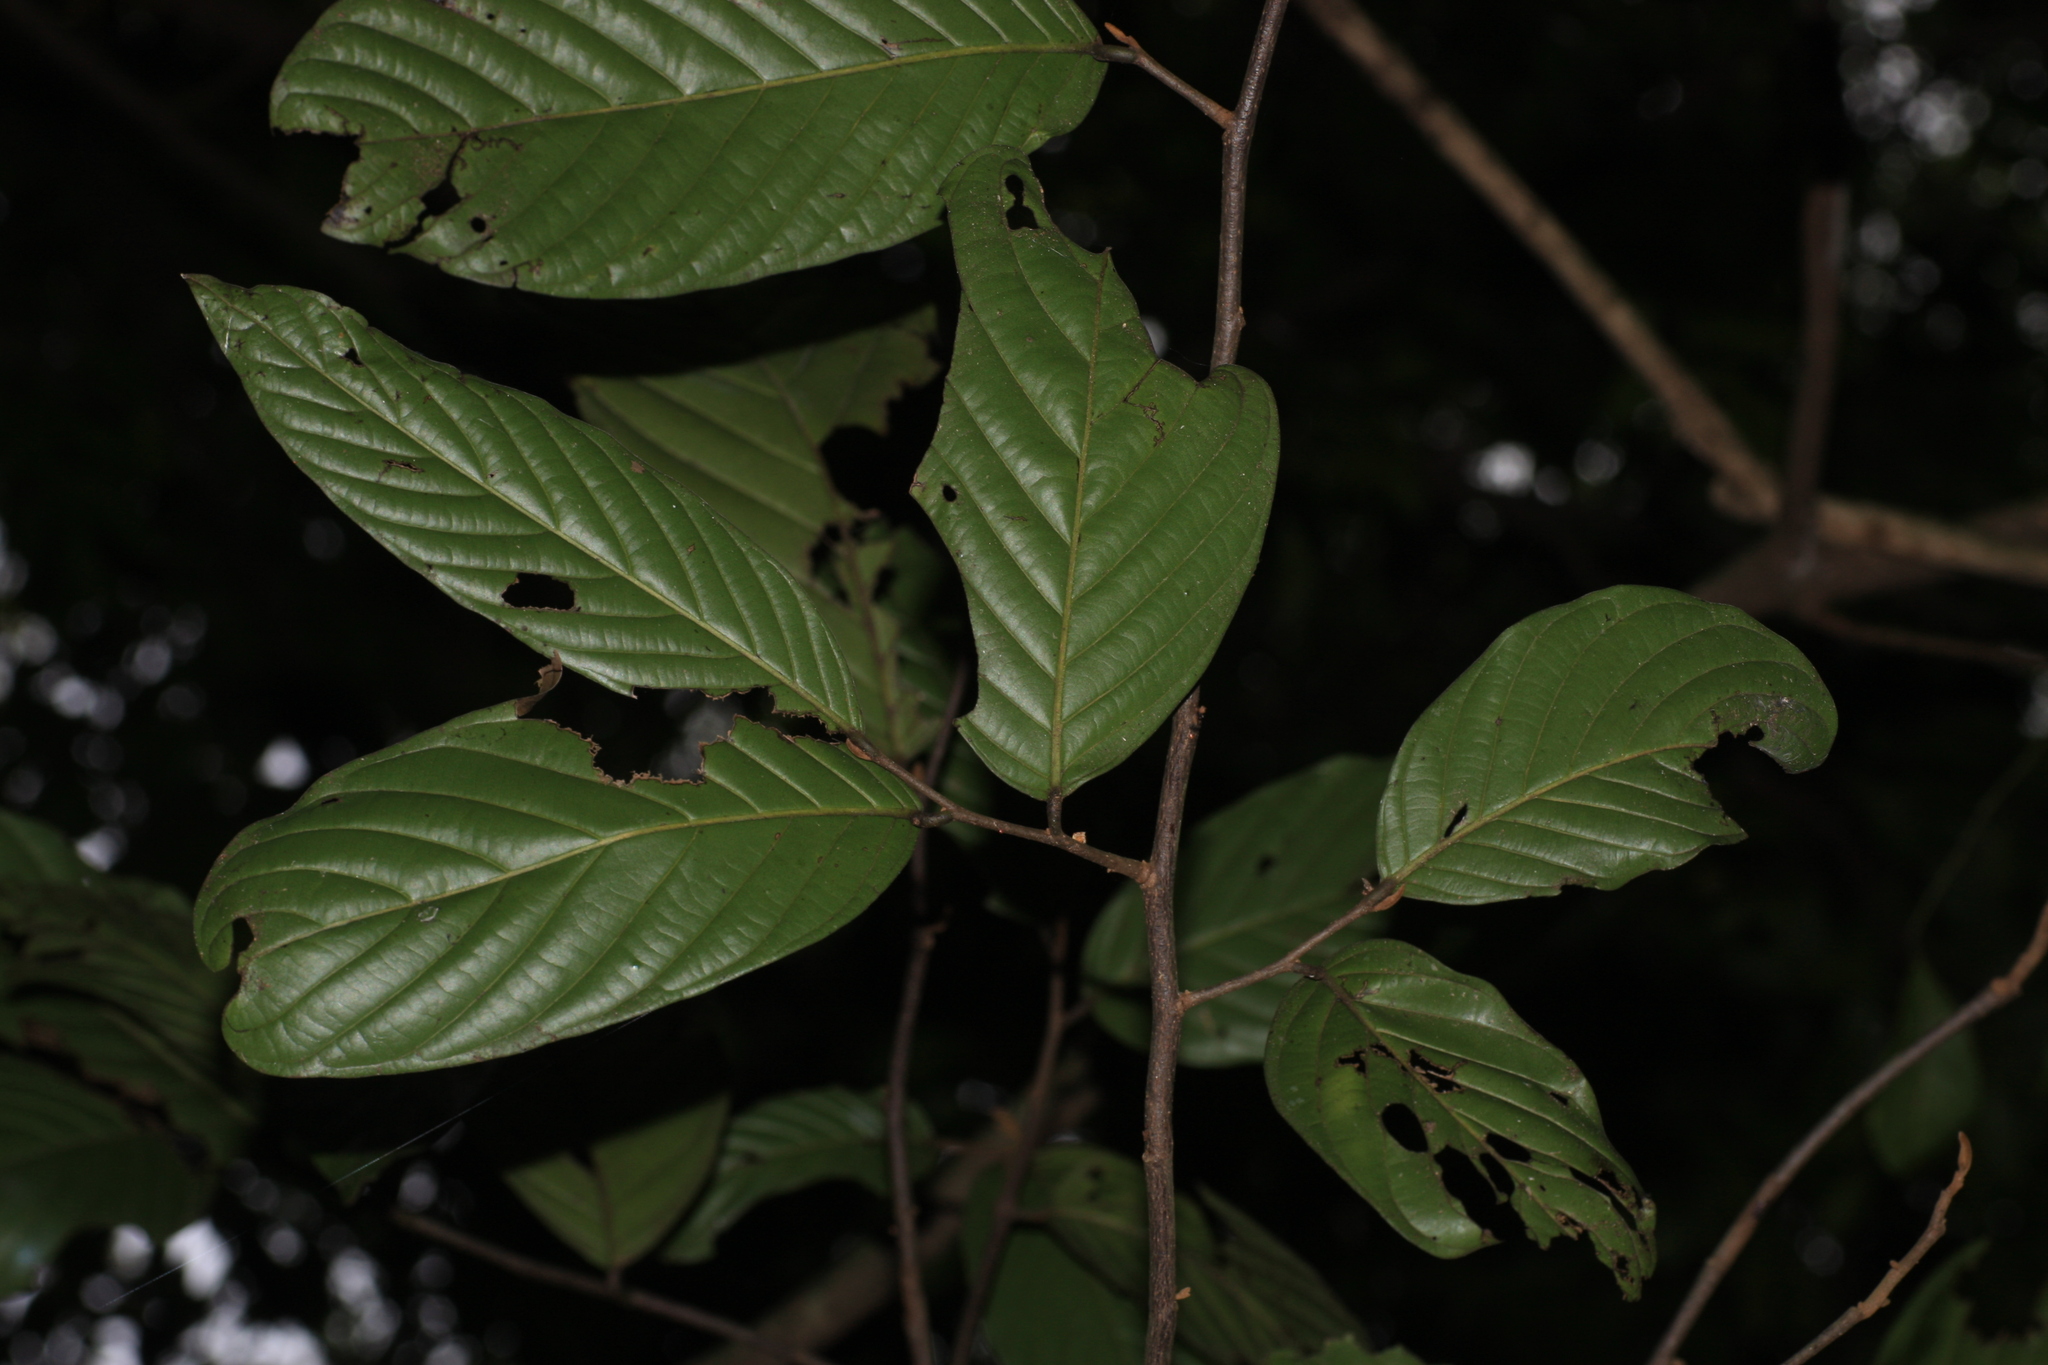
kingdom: Plantae
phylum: Tracheophyta
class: Magnoliopsida
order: Magnoliales
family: Annonaceae
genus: Polyalthia
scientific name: Polyalthia fragrans
